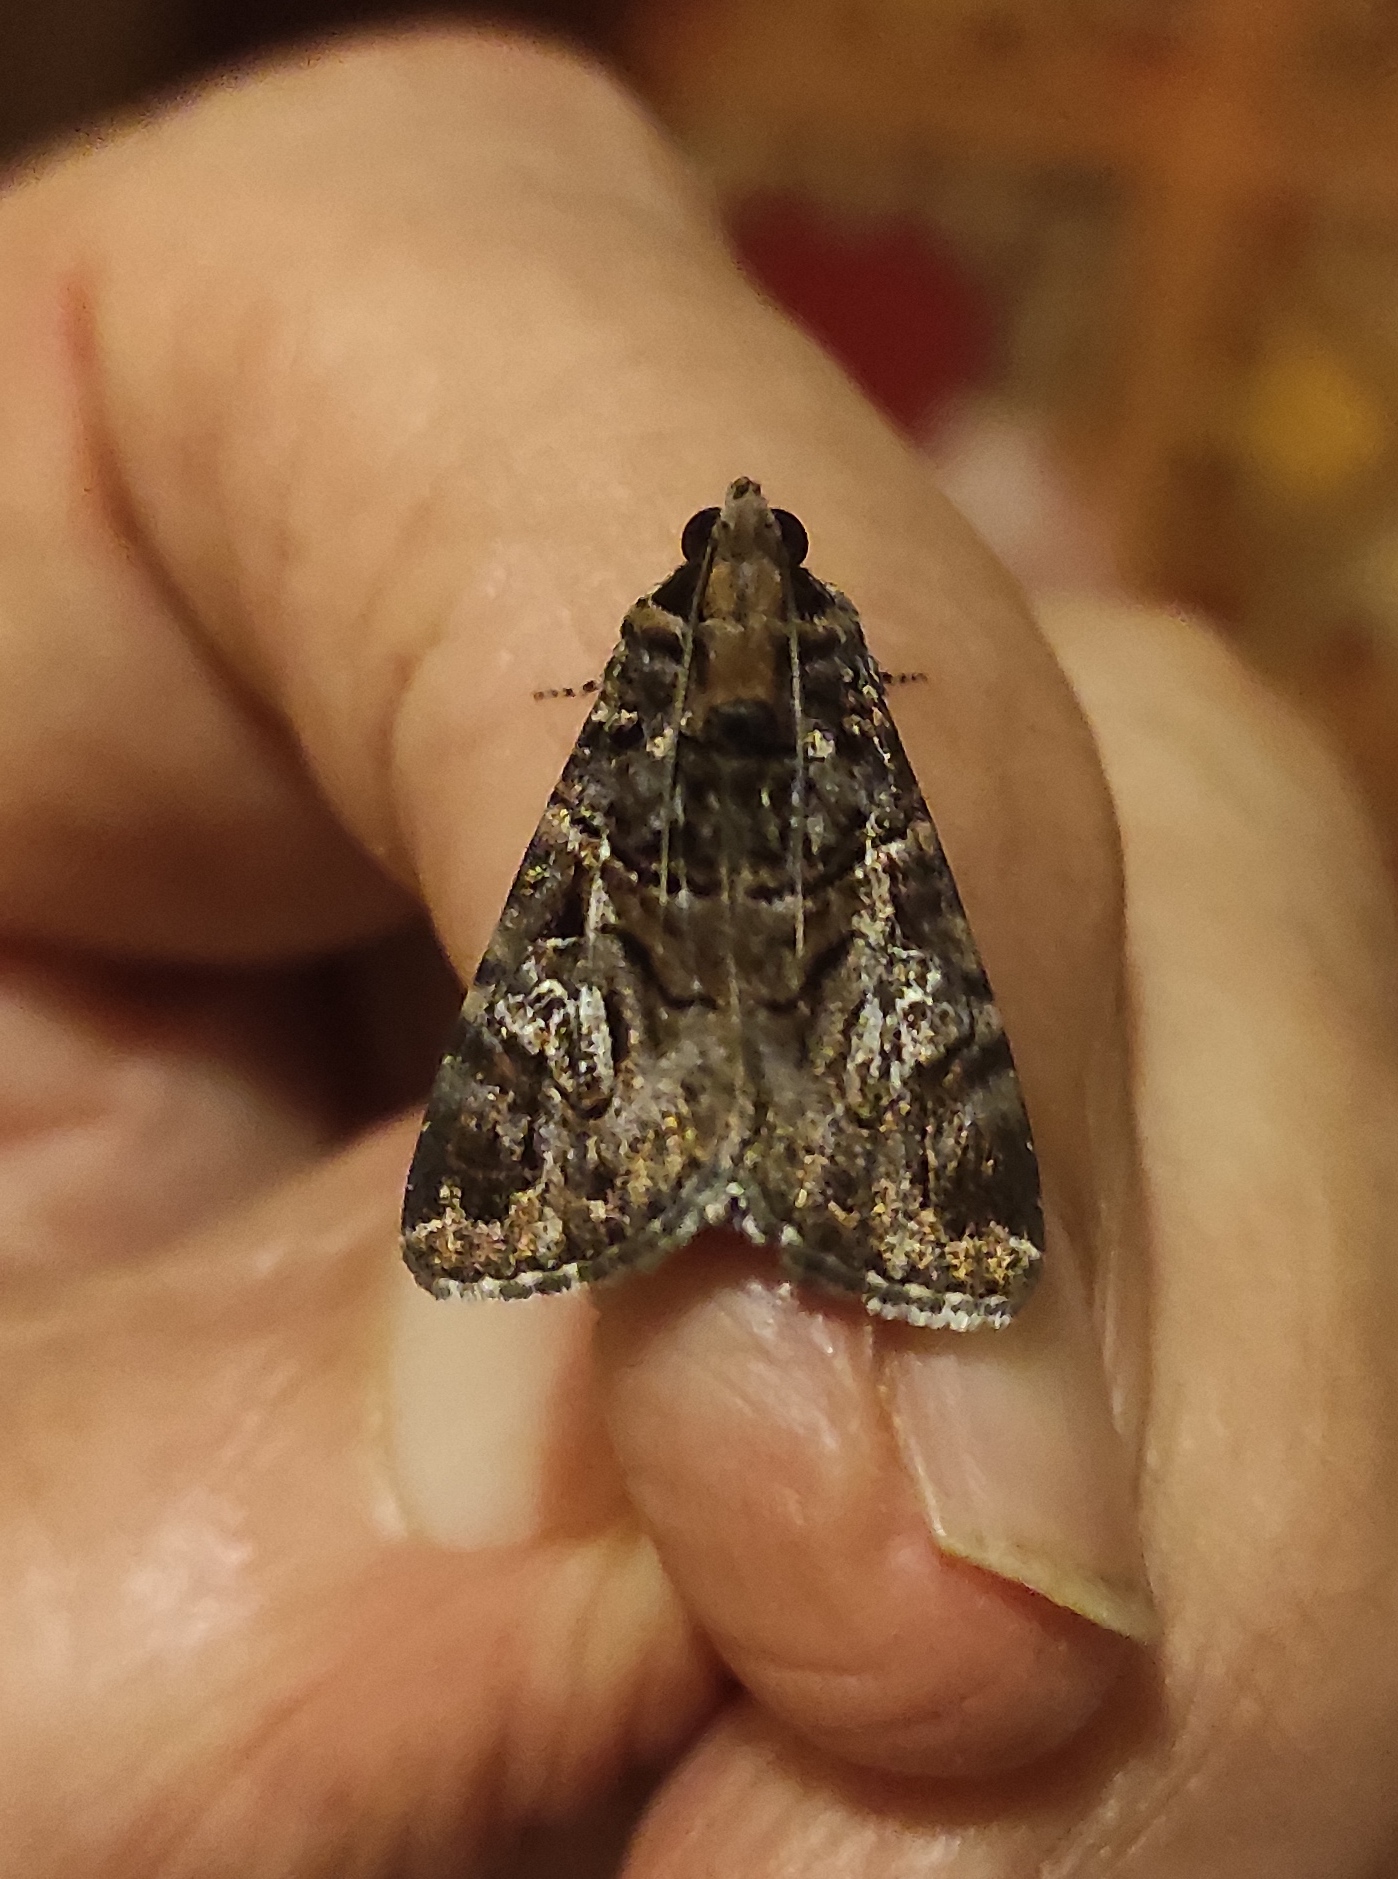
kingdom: Animalia
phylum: Arthropoda
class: Insecta
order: Lepidoptera
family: Erebidae
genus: Melipotis
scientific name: Melipotis famelica
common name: Famelica melipotis moth
